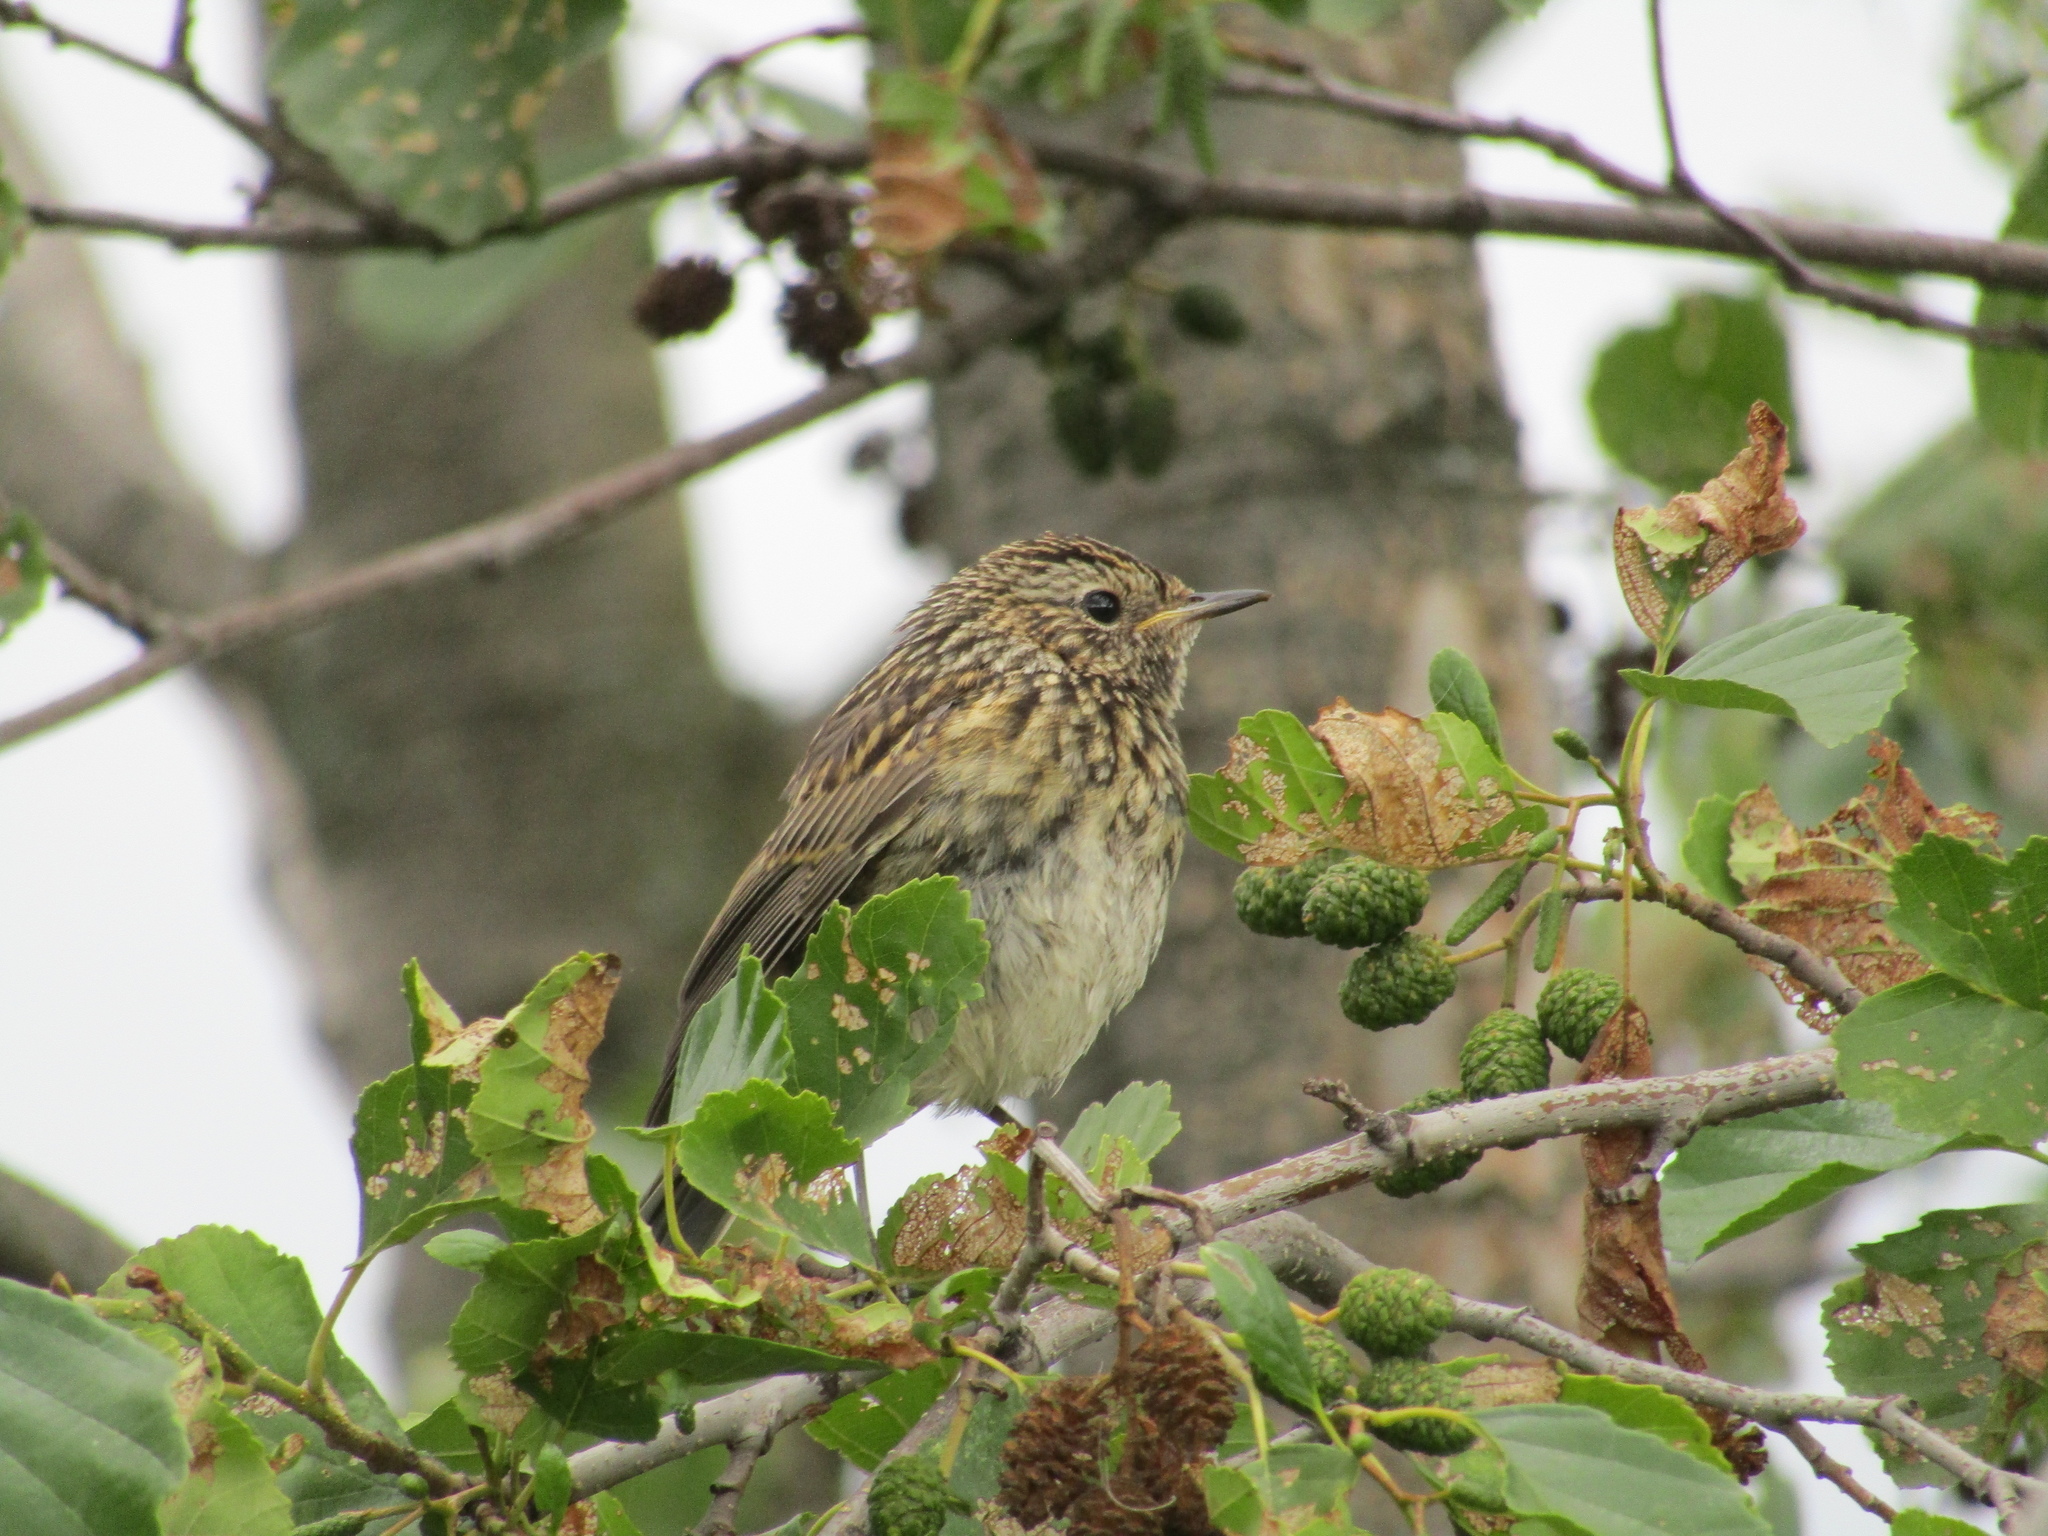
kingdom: Animalia
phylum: Chordata
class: Aves
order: Passeriformes
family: Muscicapidae
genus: Erithacus
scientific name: Erithacus rubecula
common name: European robin
